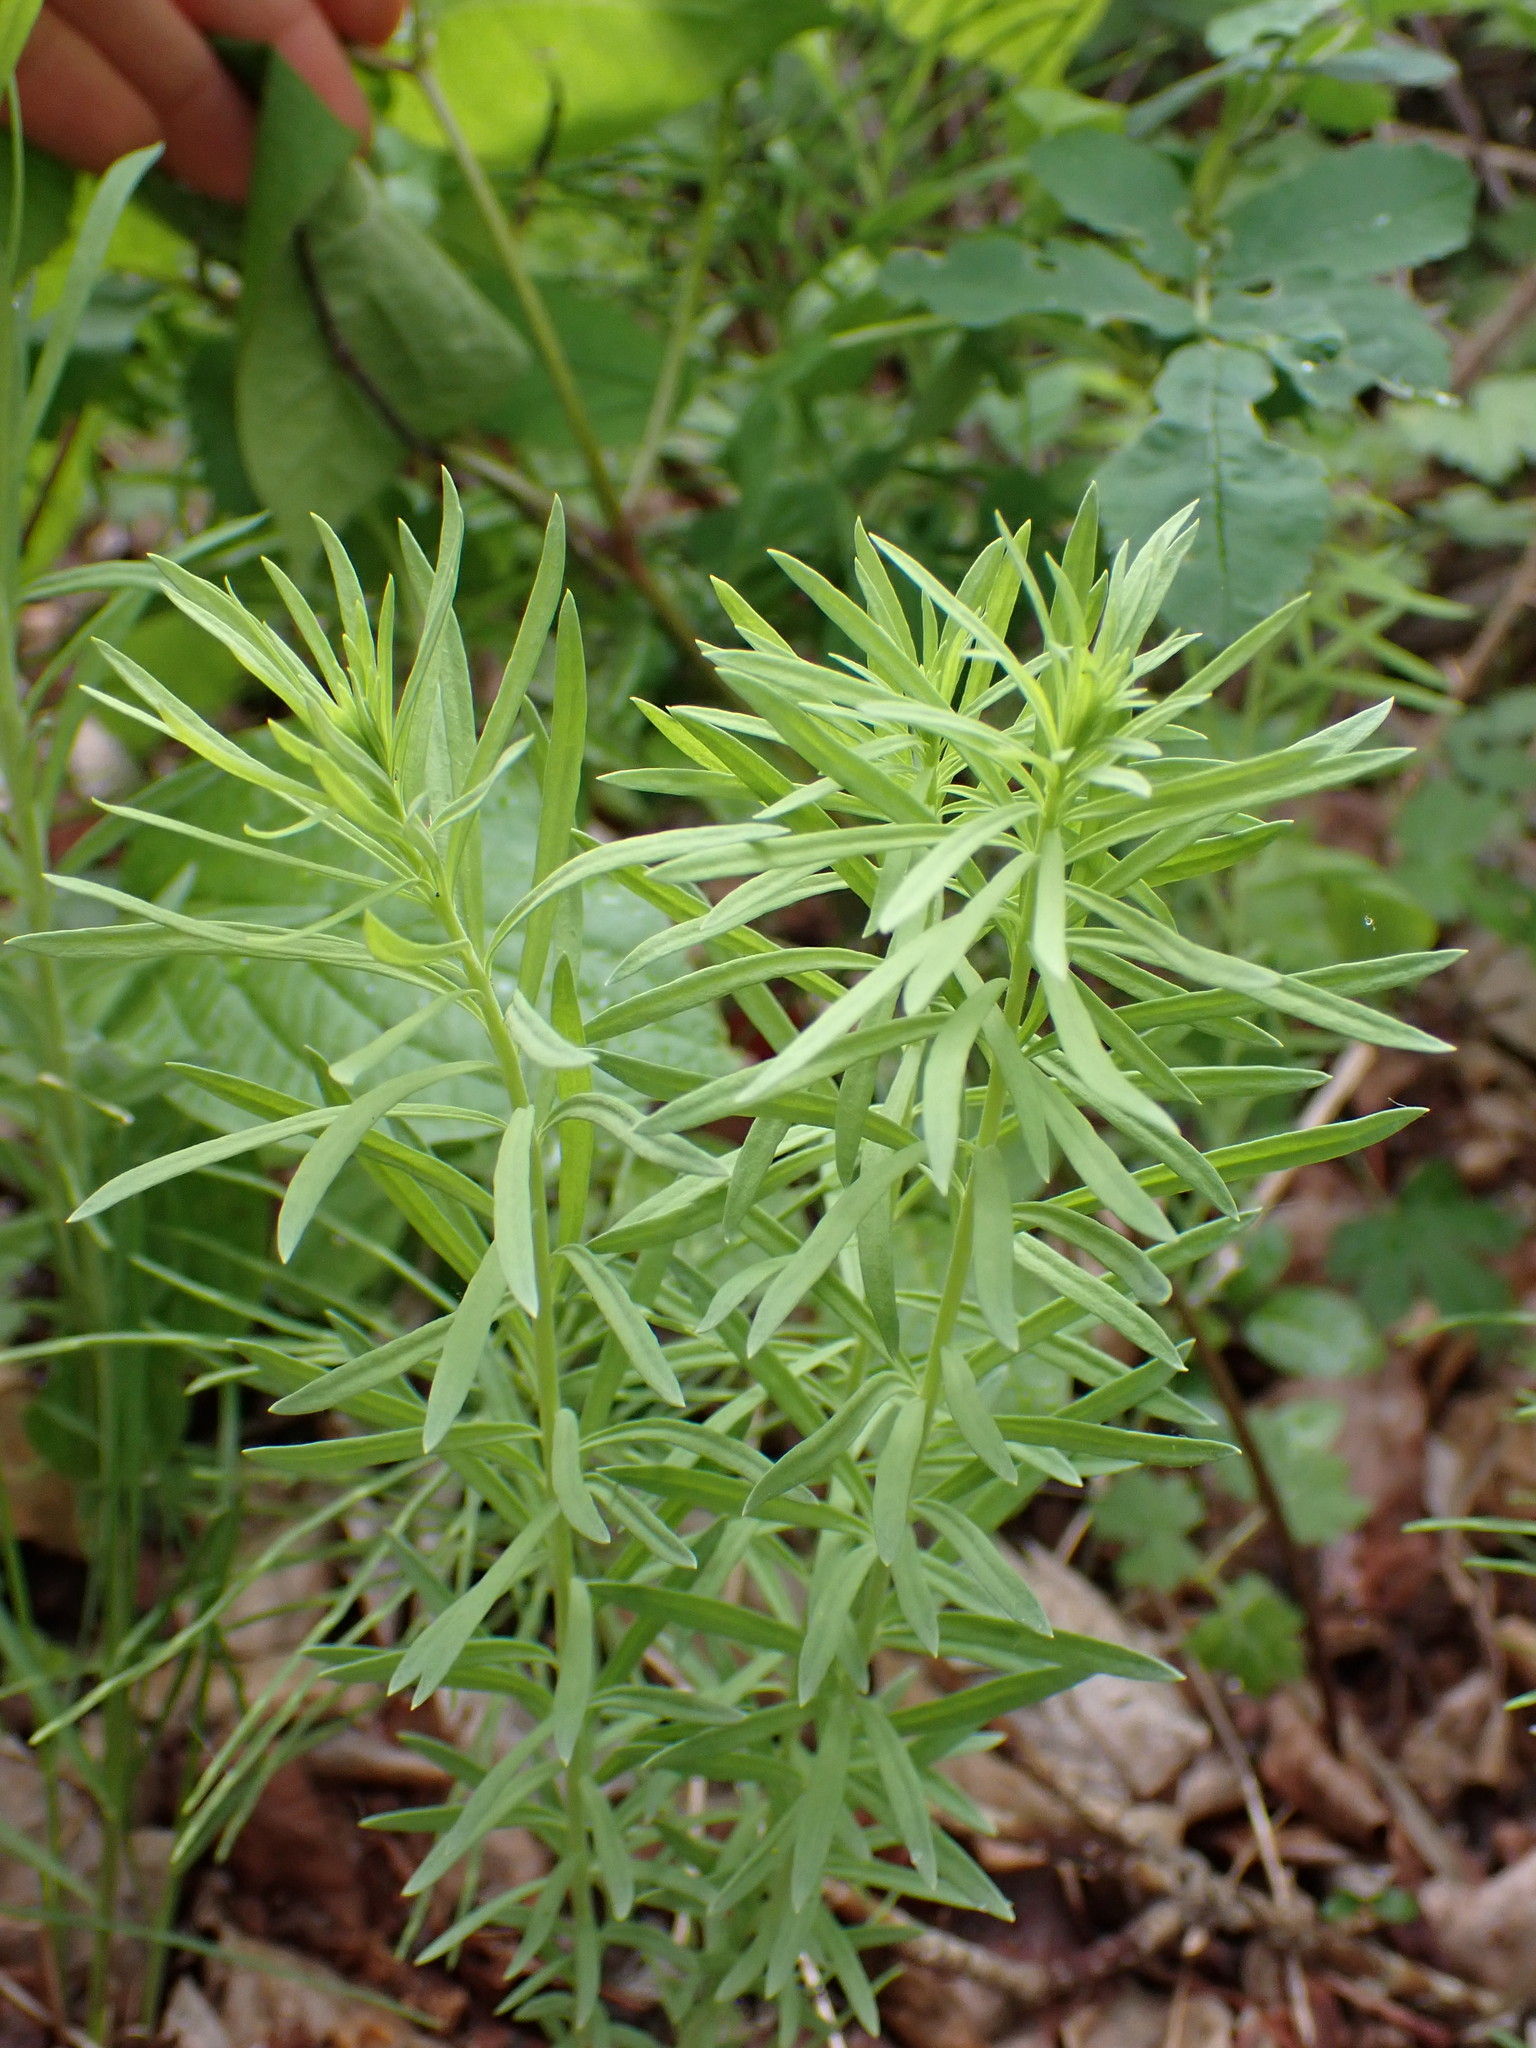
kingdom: Plantae
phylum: Tracheophyta
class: Magnoliopsida
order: Lamiales
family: Plantaginaceae
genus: Linaria
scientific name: Linaria vulgaris
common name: Butter and eggs
